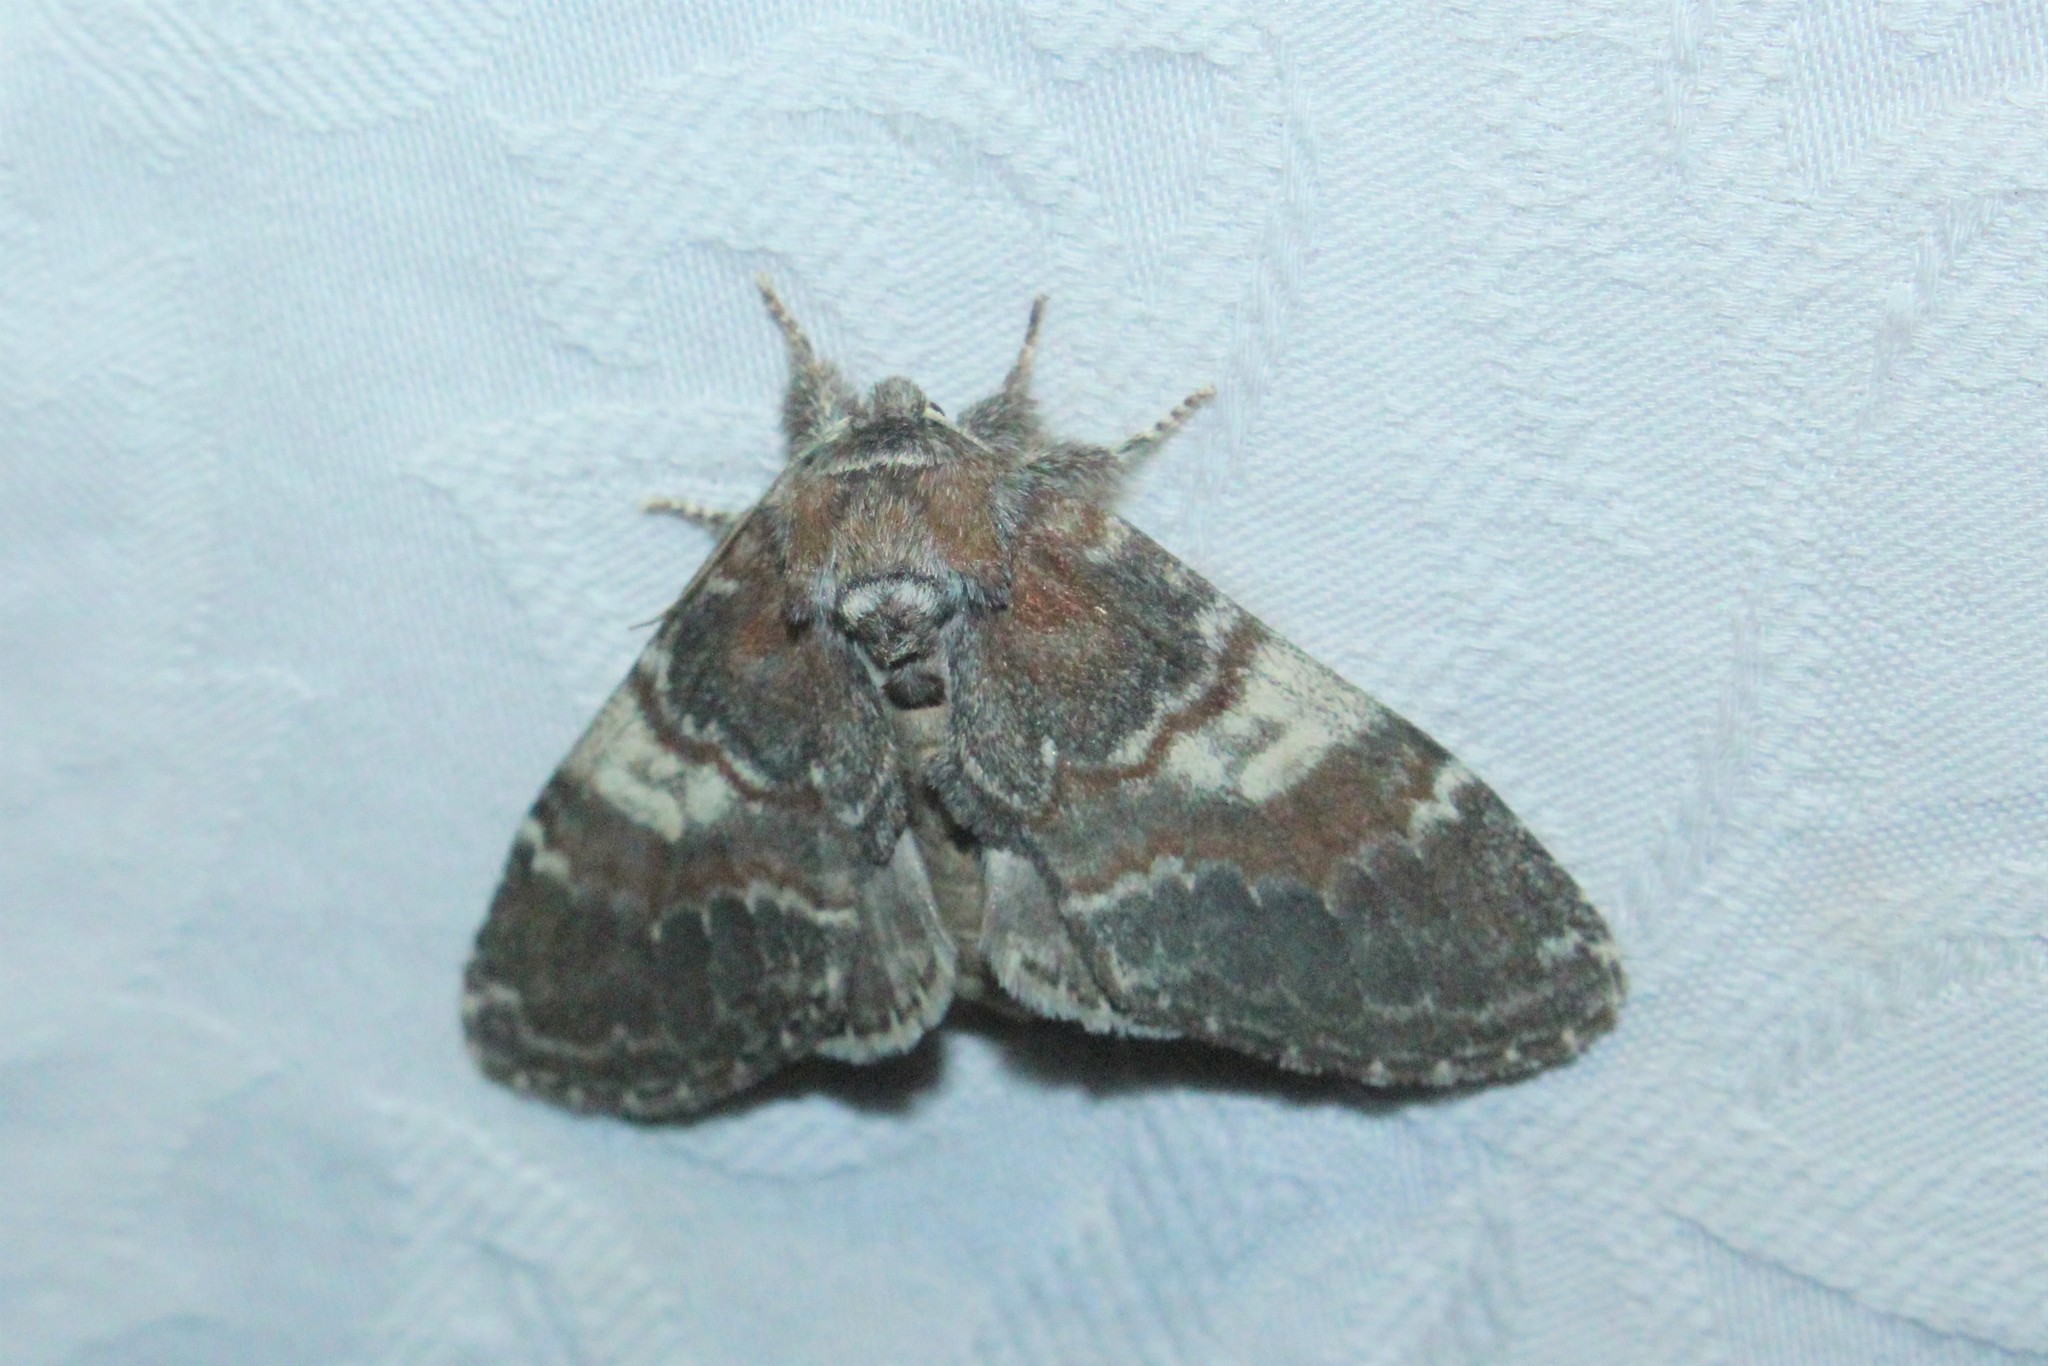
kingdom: Animalia
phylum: Arthropoda
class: Insecta
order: Lepidoptera
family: Notodontidae
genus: Peridea
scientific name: Peridea ferruginea
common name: Chocolate prominent
